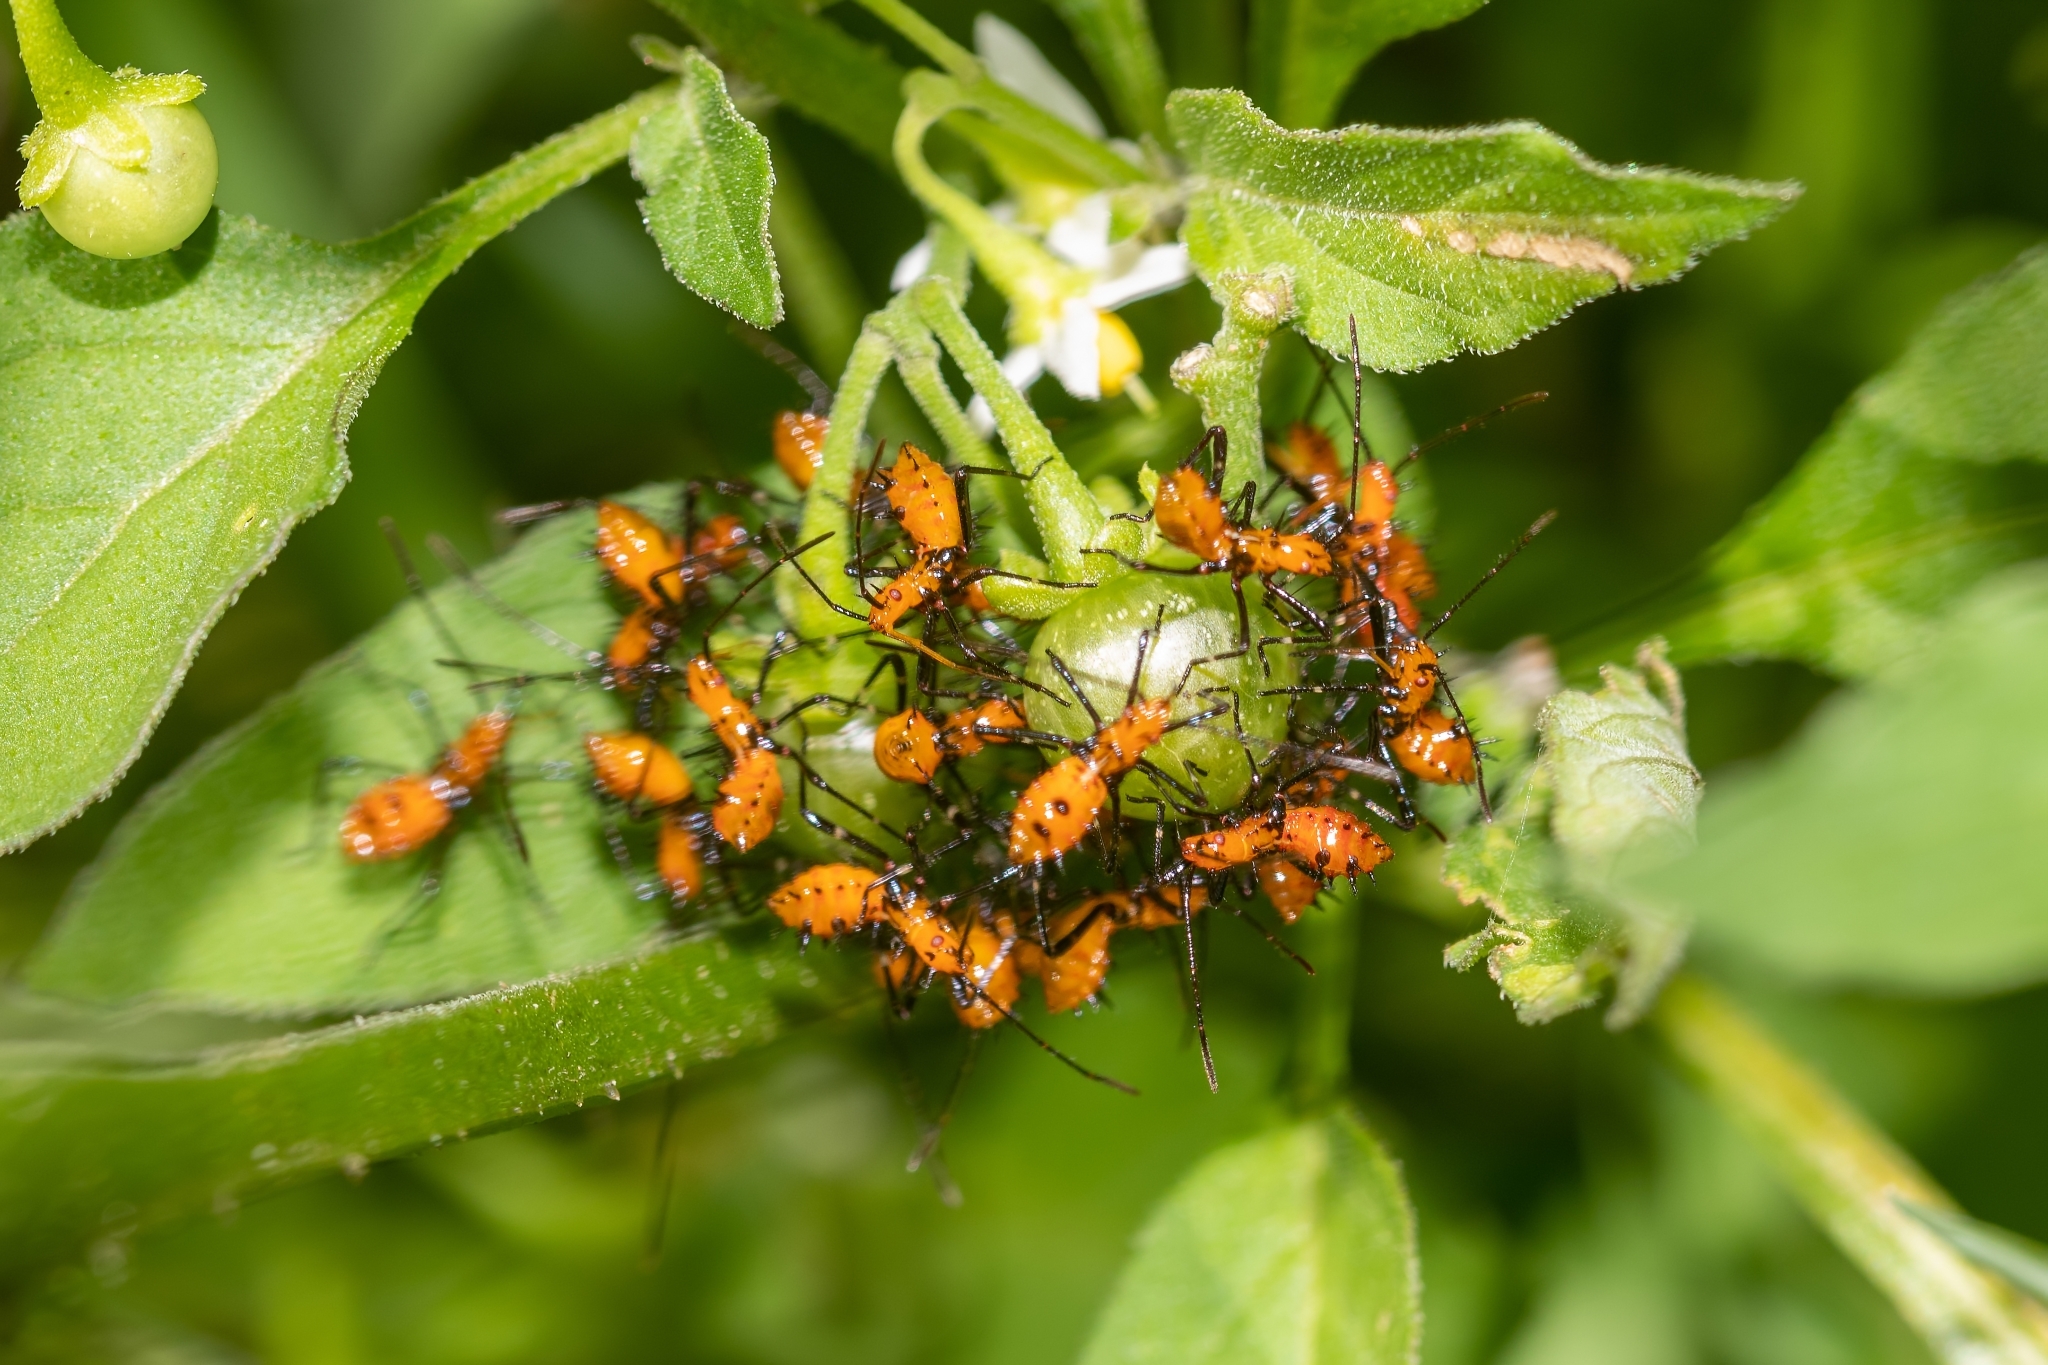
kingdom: Animalia
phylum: Arthropoda
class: Insecta
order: Hemiptera
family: Coreidae
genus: Leptoglossus
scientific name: Leptoglossus phyllopus
